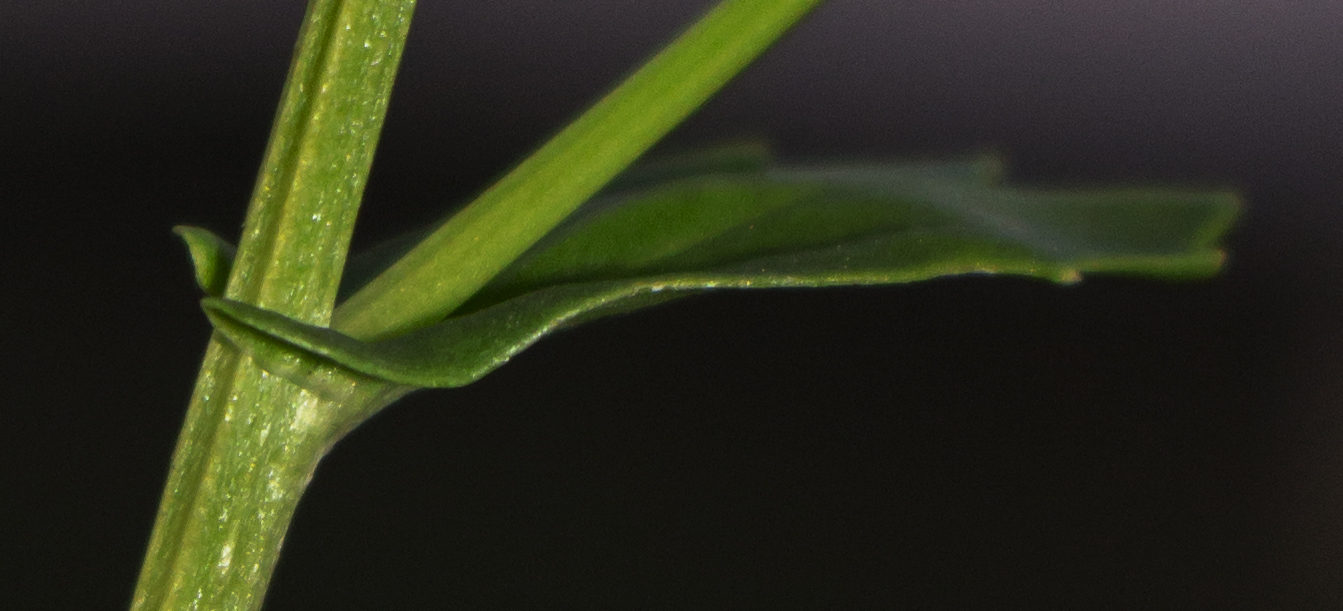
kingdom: Plantae
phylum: Tracheophyta
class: Magnoliopsida
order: Brassicales
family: Brassicaceae
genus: Barbarea
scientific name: Barbarea vulgaris
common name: Cressy-greens
